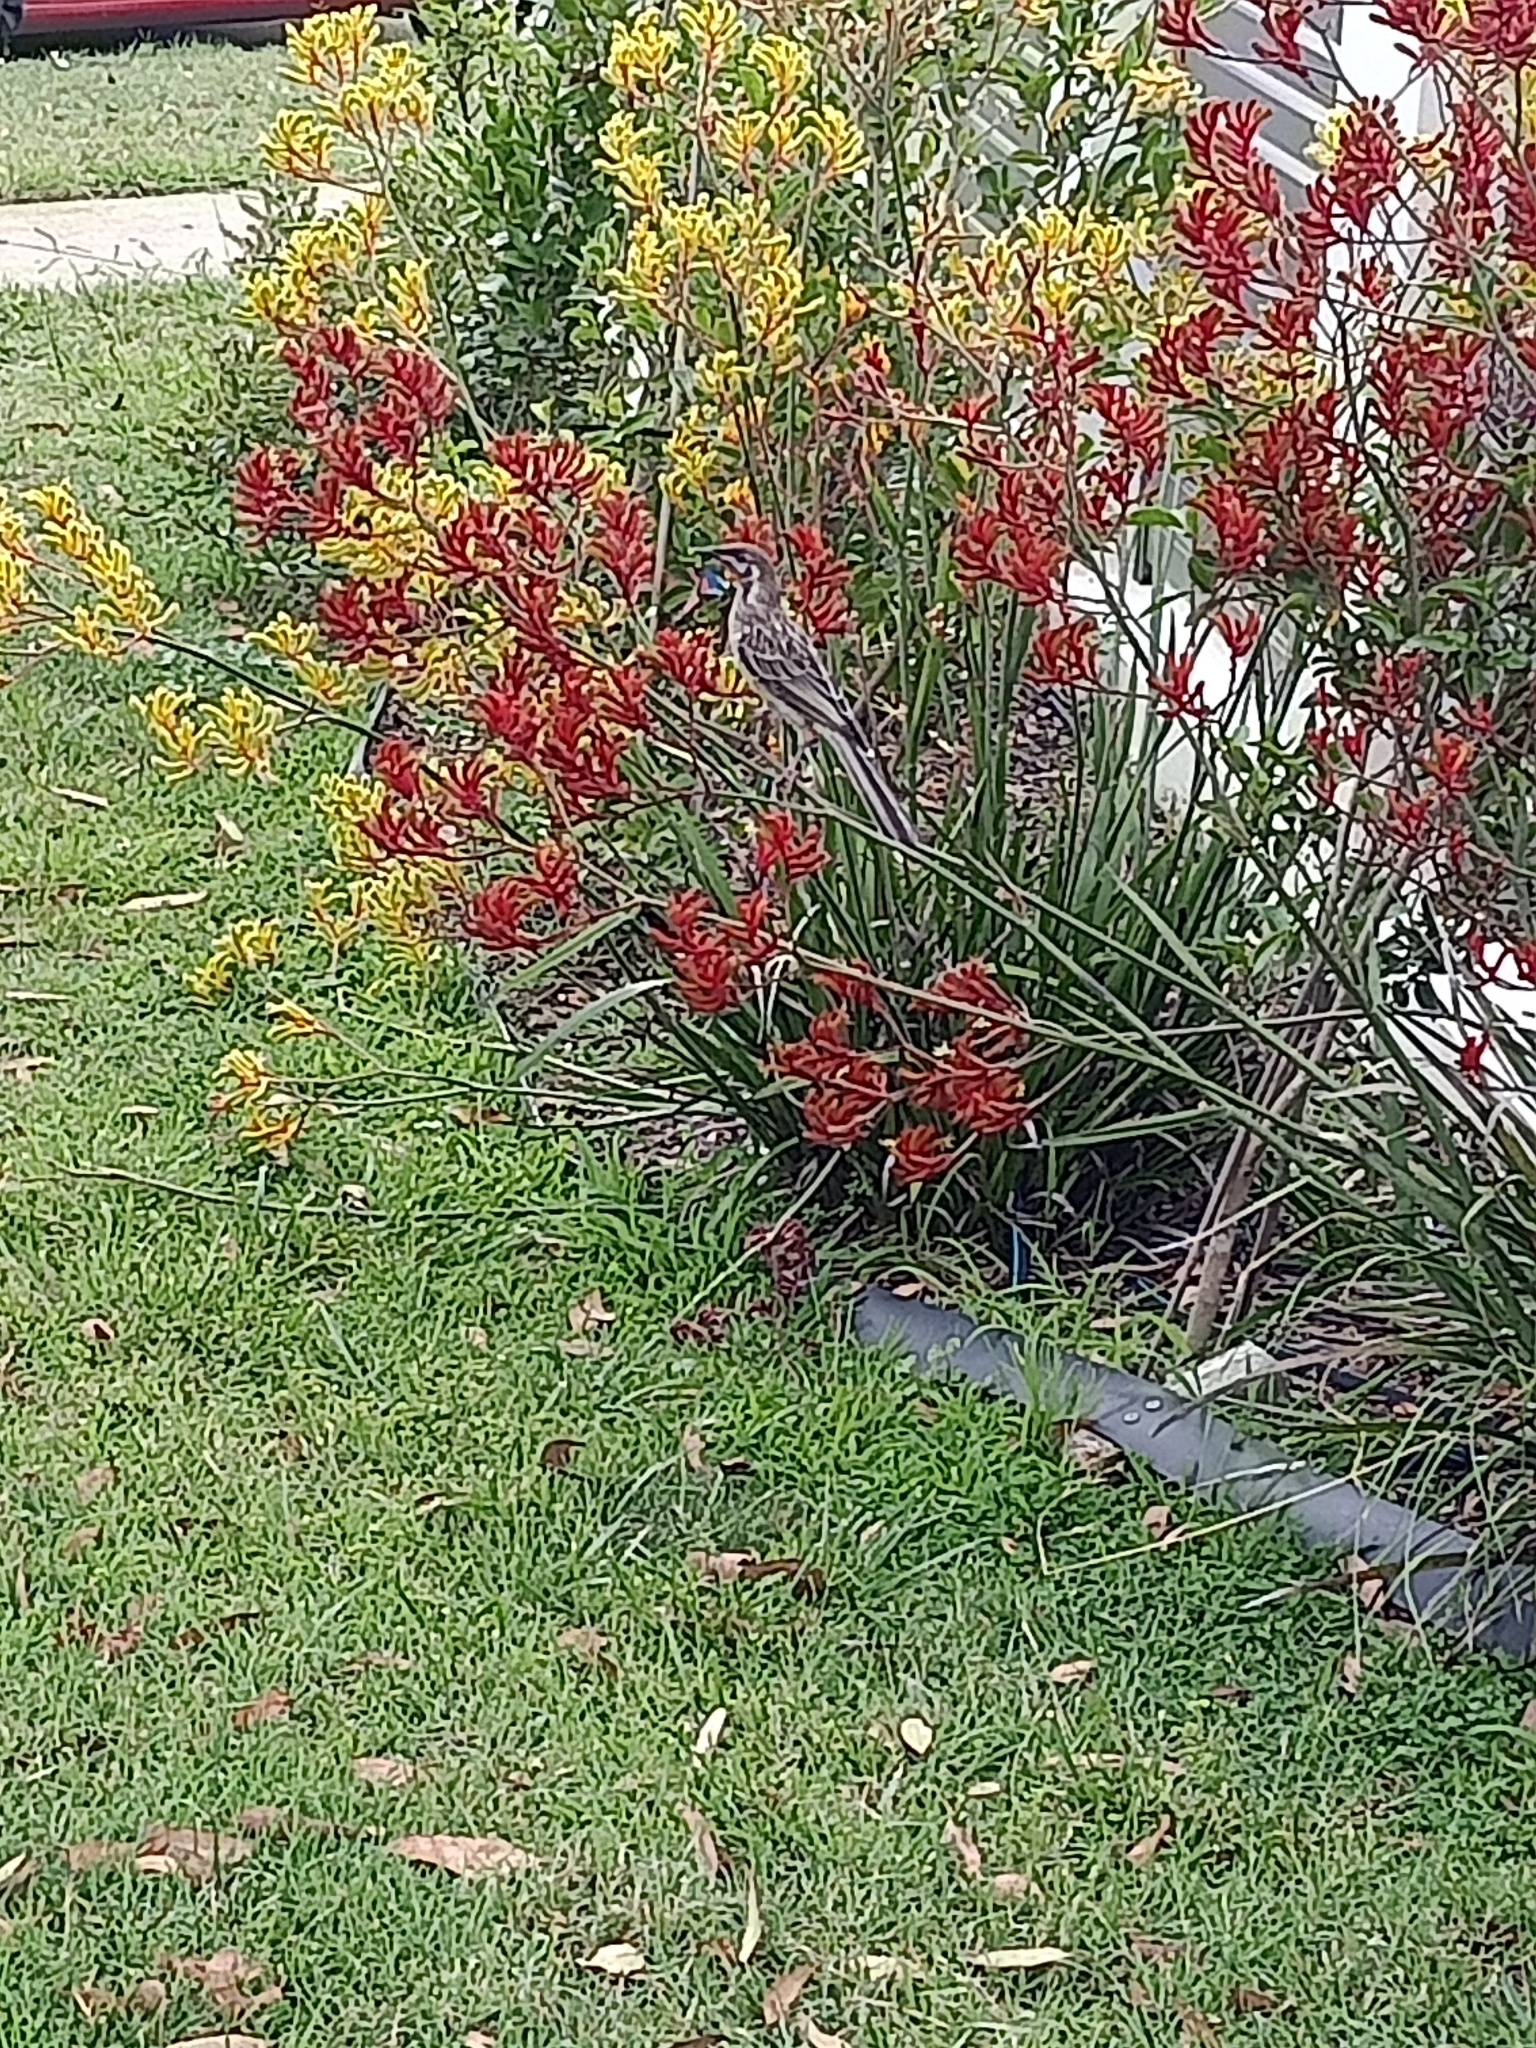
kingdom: Animalia
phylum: Chordata
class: Aves
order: Passeriformes
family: Meliphagidae
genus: Anthochaera
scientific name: Anthochaera carunculata
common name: Red wattlebird
